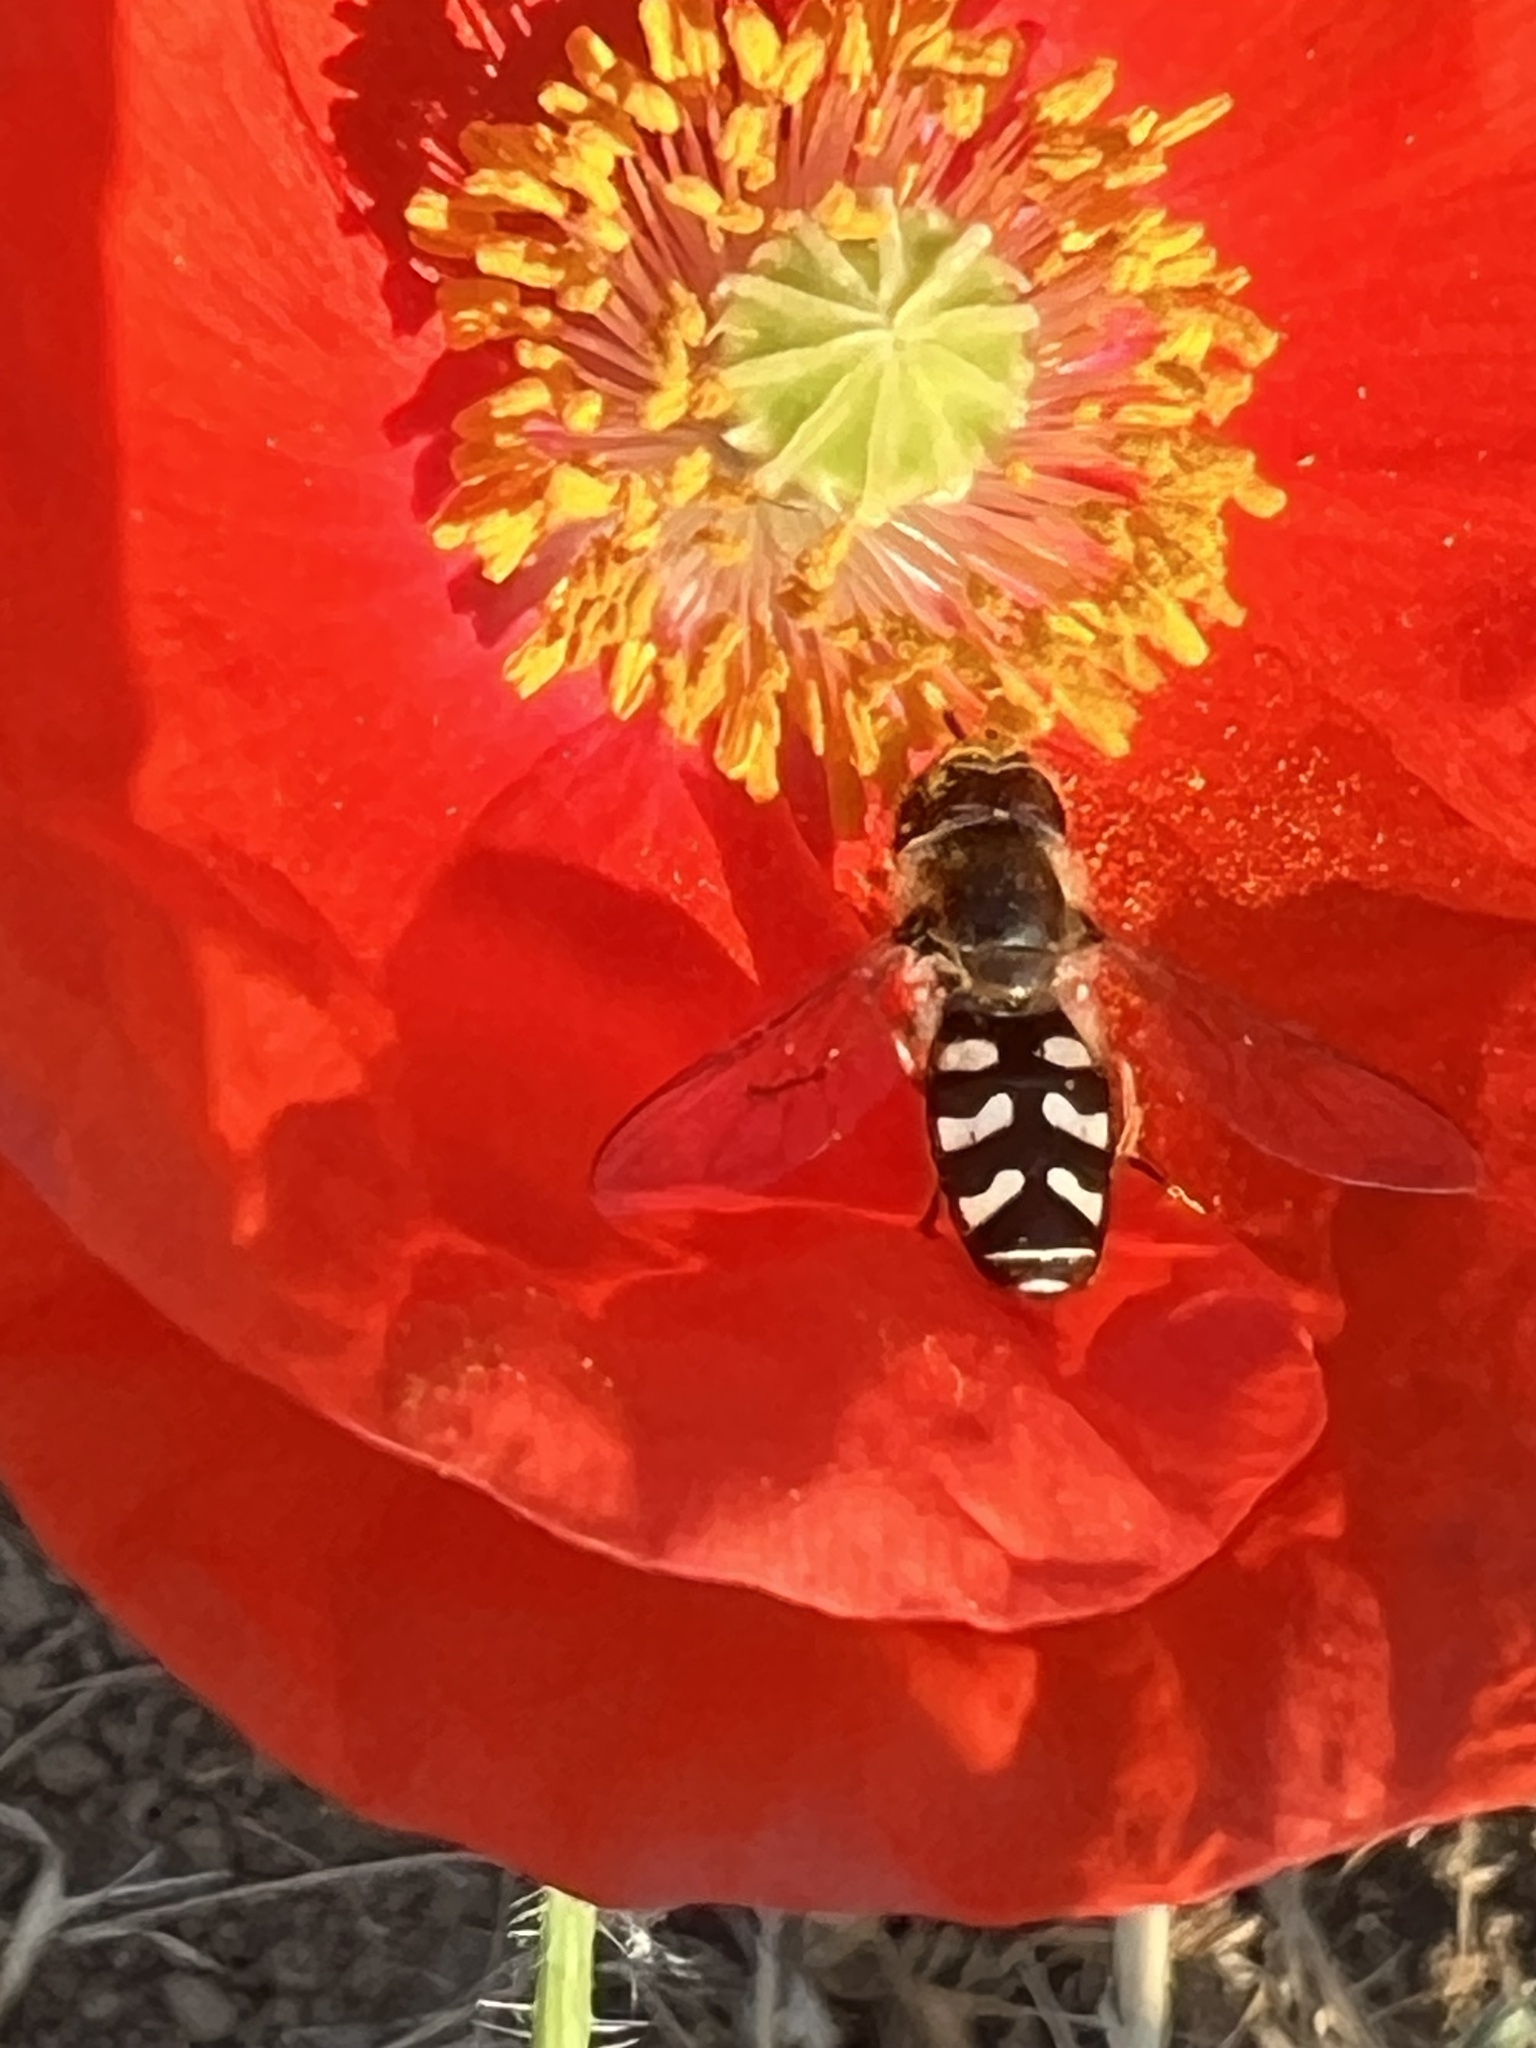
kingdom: Animalia
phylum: Arthropoda
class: Insecta
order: Diptera
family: Syrphidae
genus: Scaeva
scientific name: Scaeva pyrastri
